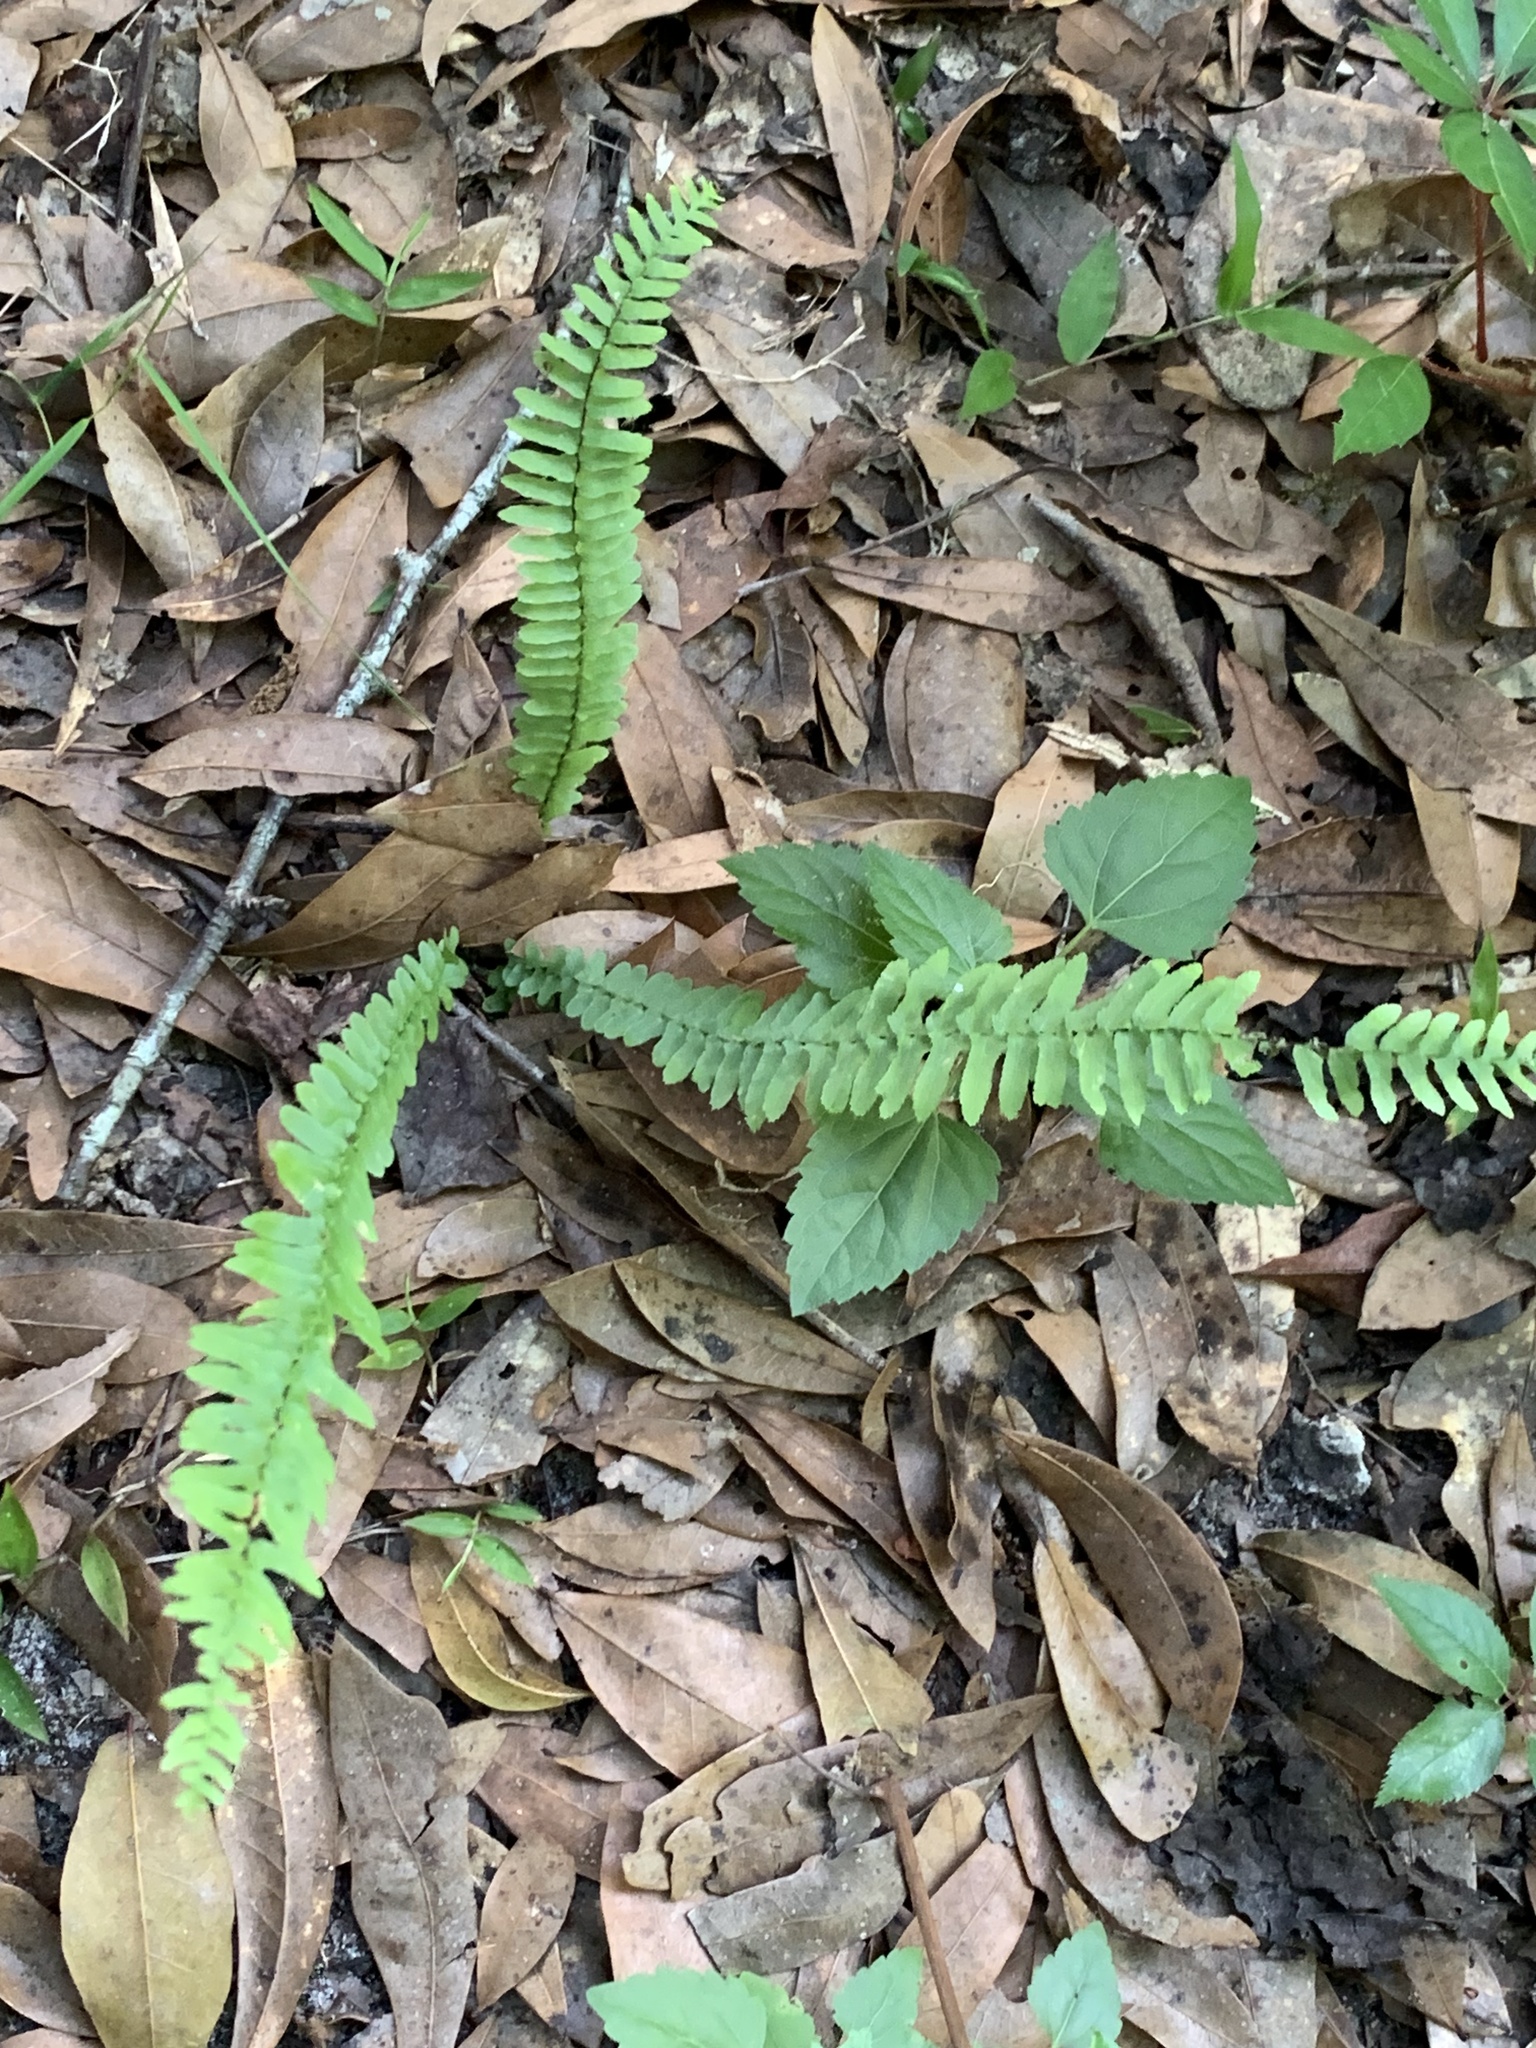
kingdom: Plantae
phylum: Tracheophyta
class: Polypodiopsida
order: Polypodiales
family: Aspleniaceae
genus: Asplenium
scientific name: Asplenium platyneuron
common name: Ebony spleenwort
